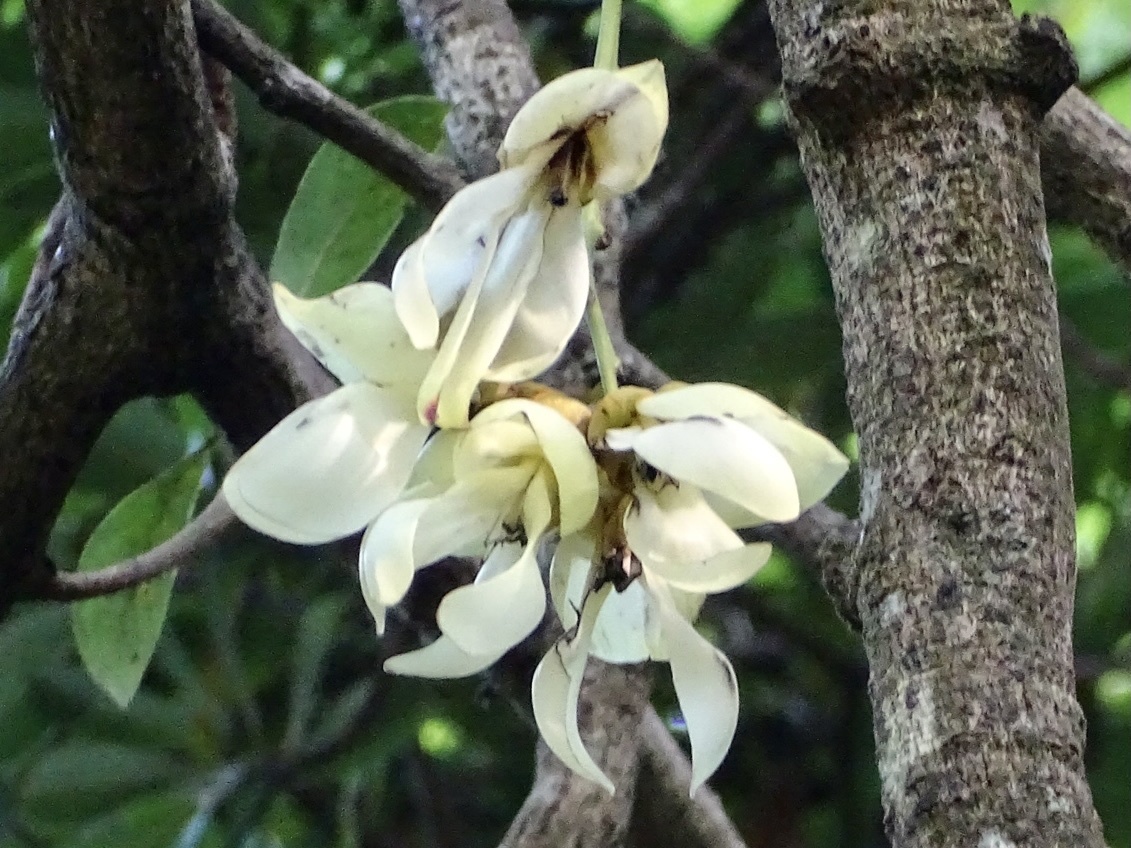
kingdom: Plantae
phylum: Tracheophyta
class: Magnoliopsida
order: Fabales
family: Fabaceae
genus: Mucuna
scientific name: Mucuna birdwoodiana
